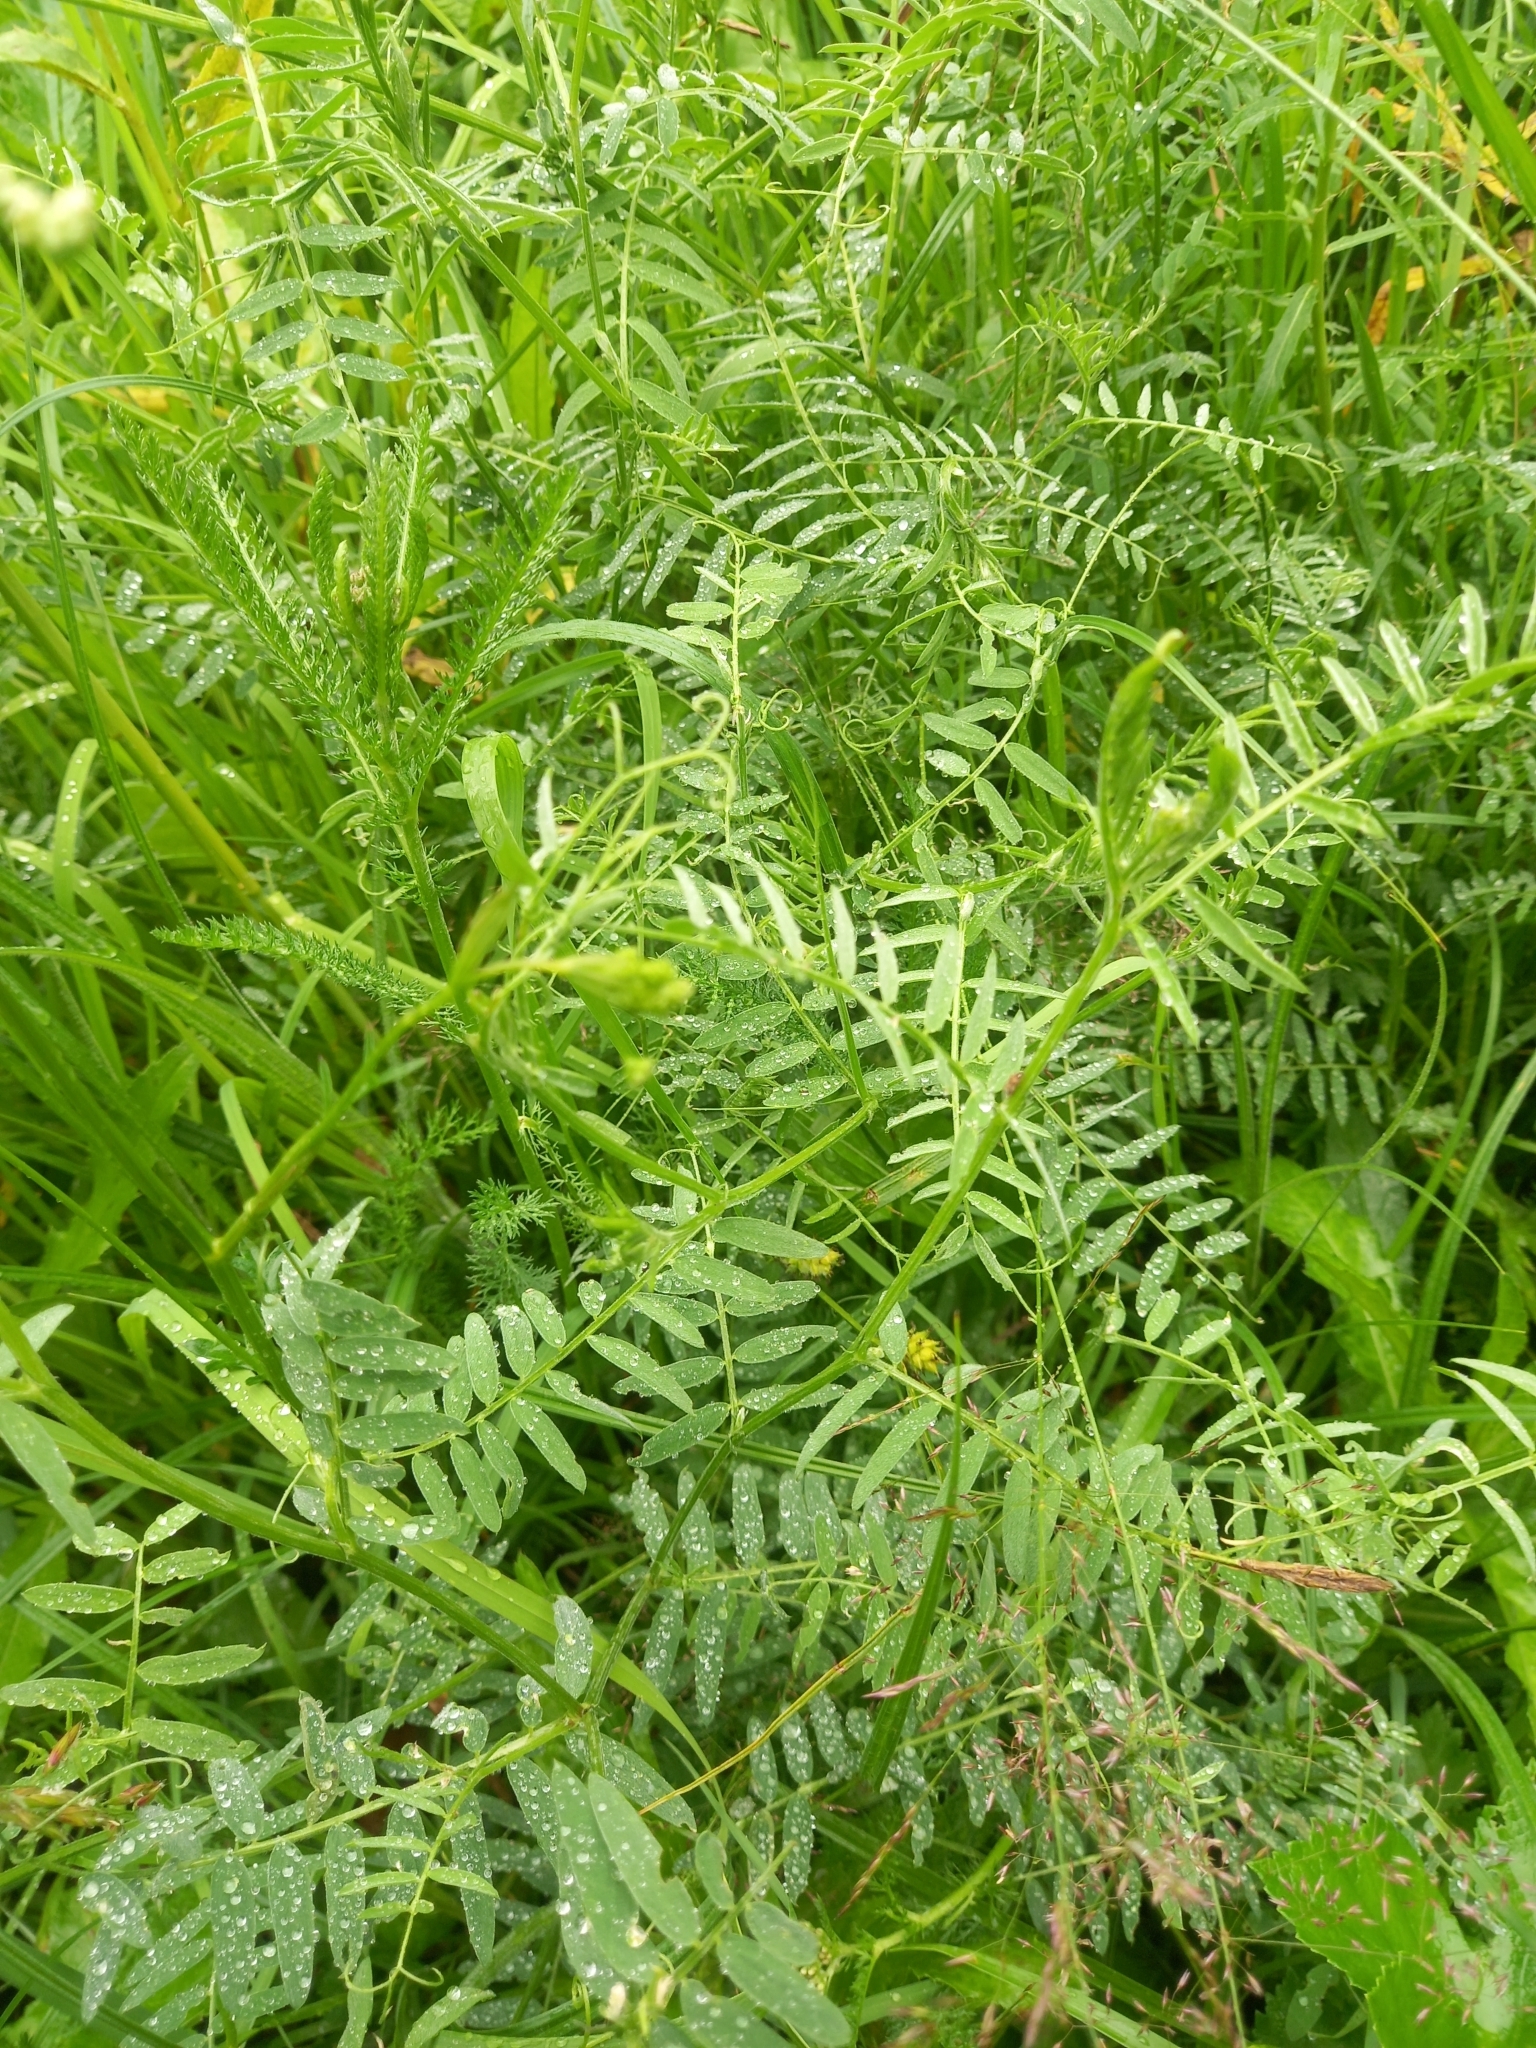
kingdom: Plantae
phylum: Tracheophyta
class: Magnoliopsida
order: Fabales
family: Fabaceae
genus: Vicia
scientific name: Vicia cracca
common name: Bird vetch
